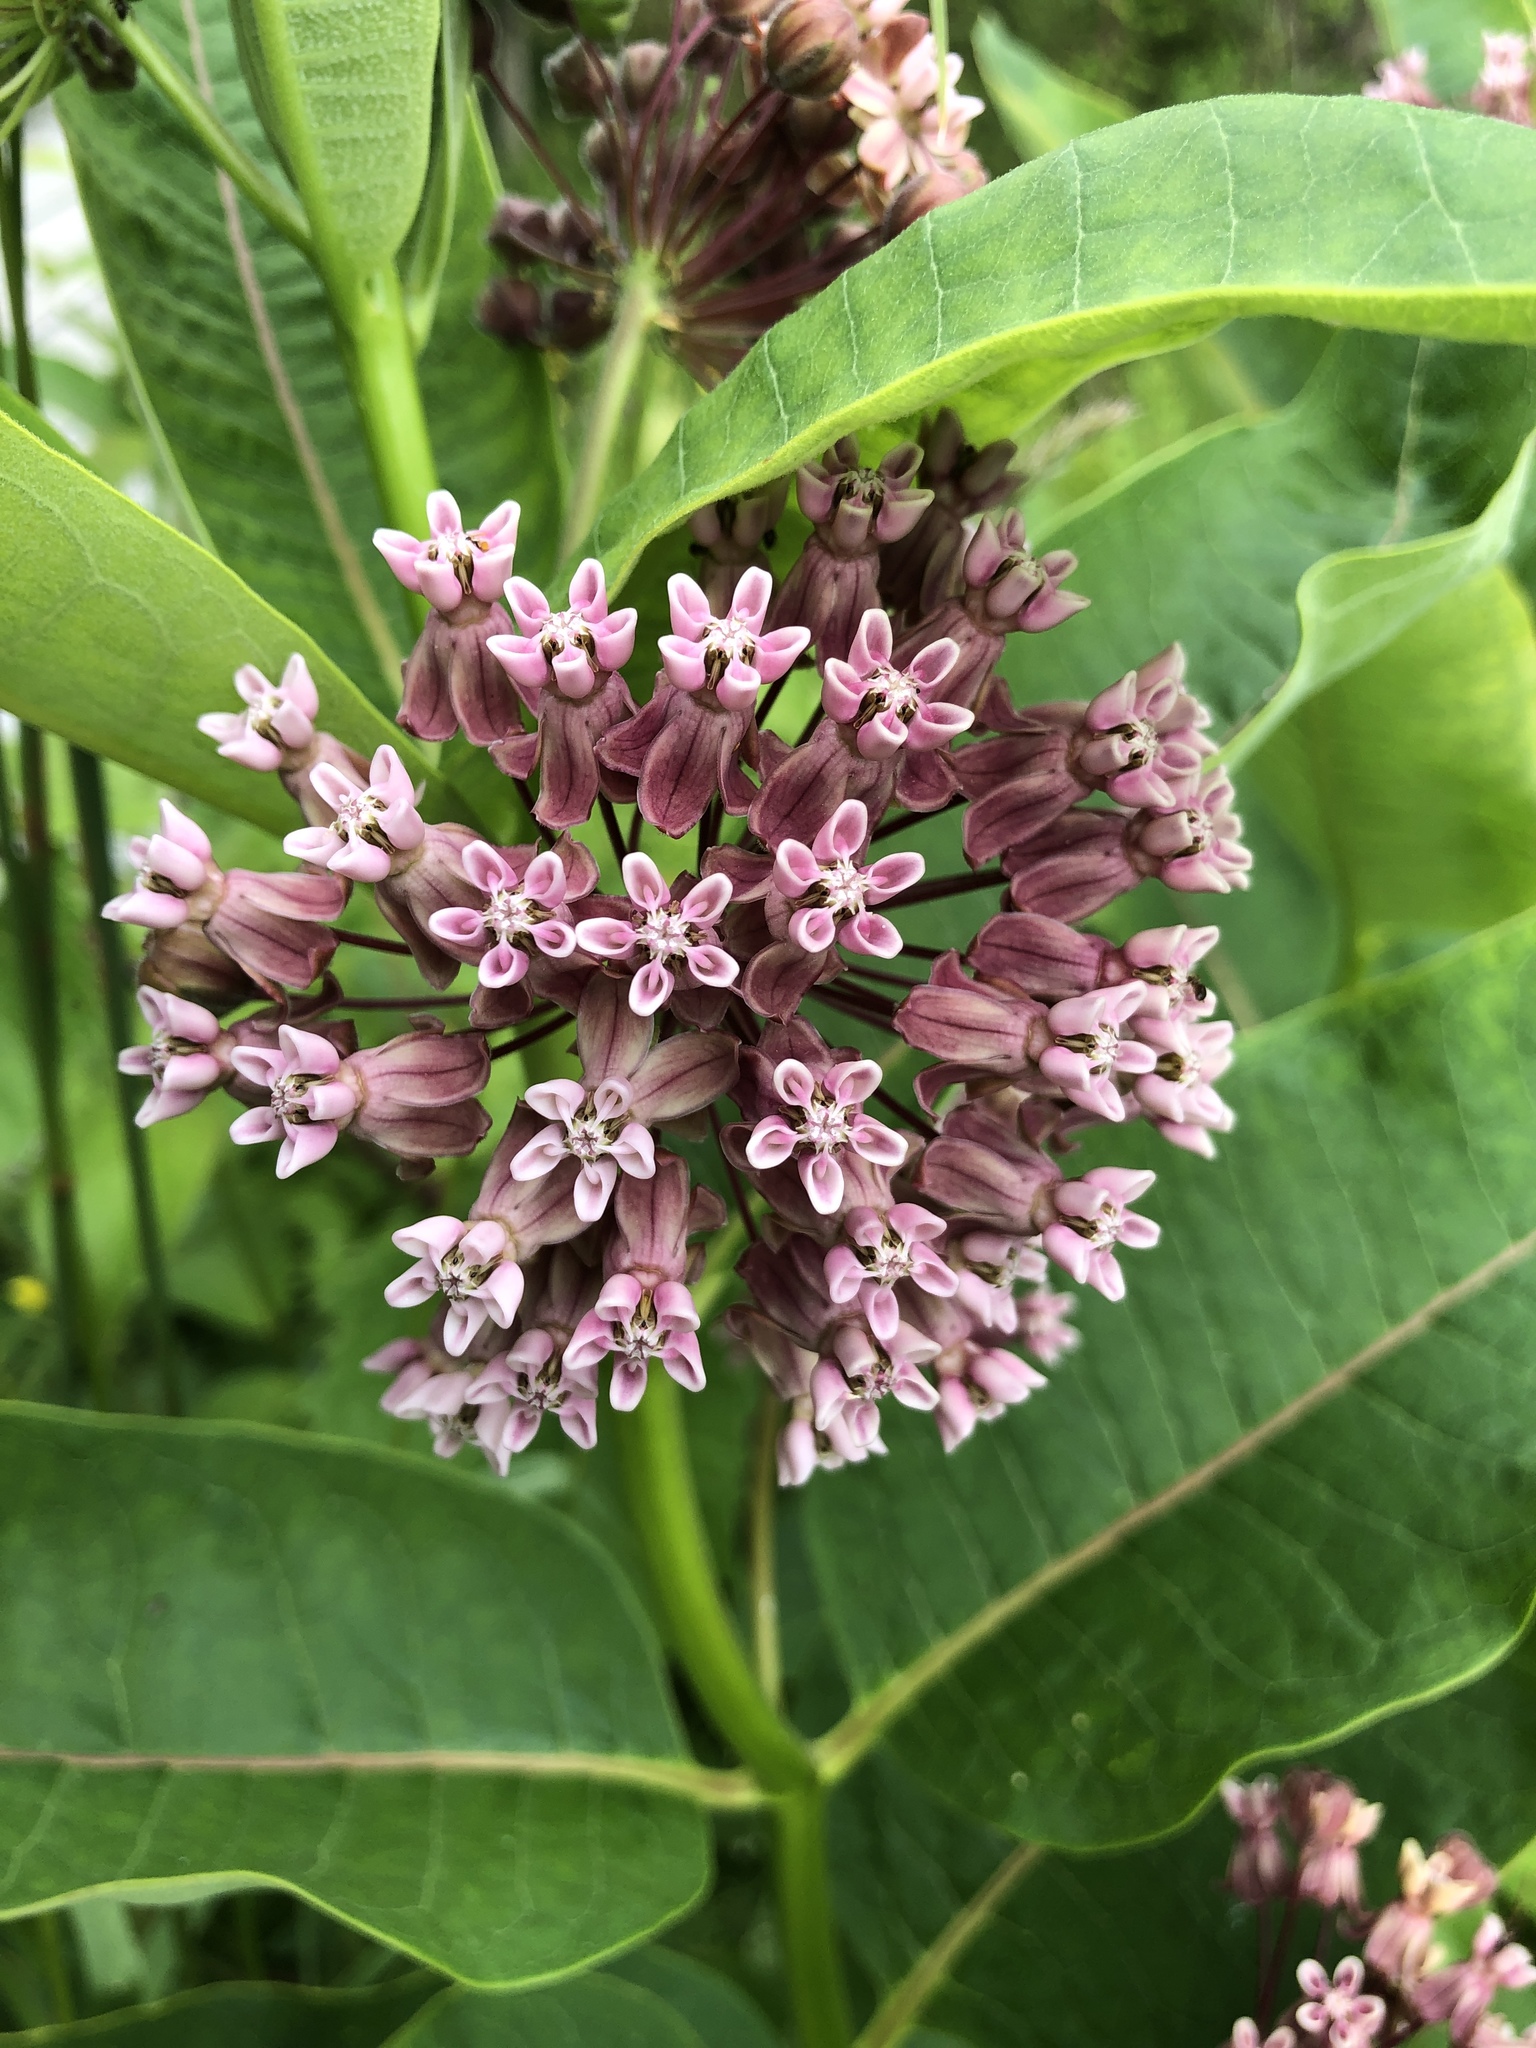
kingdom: Plantae
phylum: Tracheophyta
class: Magnoliopsida
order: Gentianales
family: Apocynaceae
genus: Asclepias
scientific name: Asclepias syriaca
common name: Common milkweed
